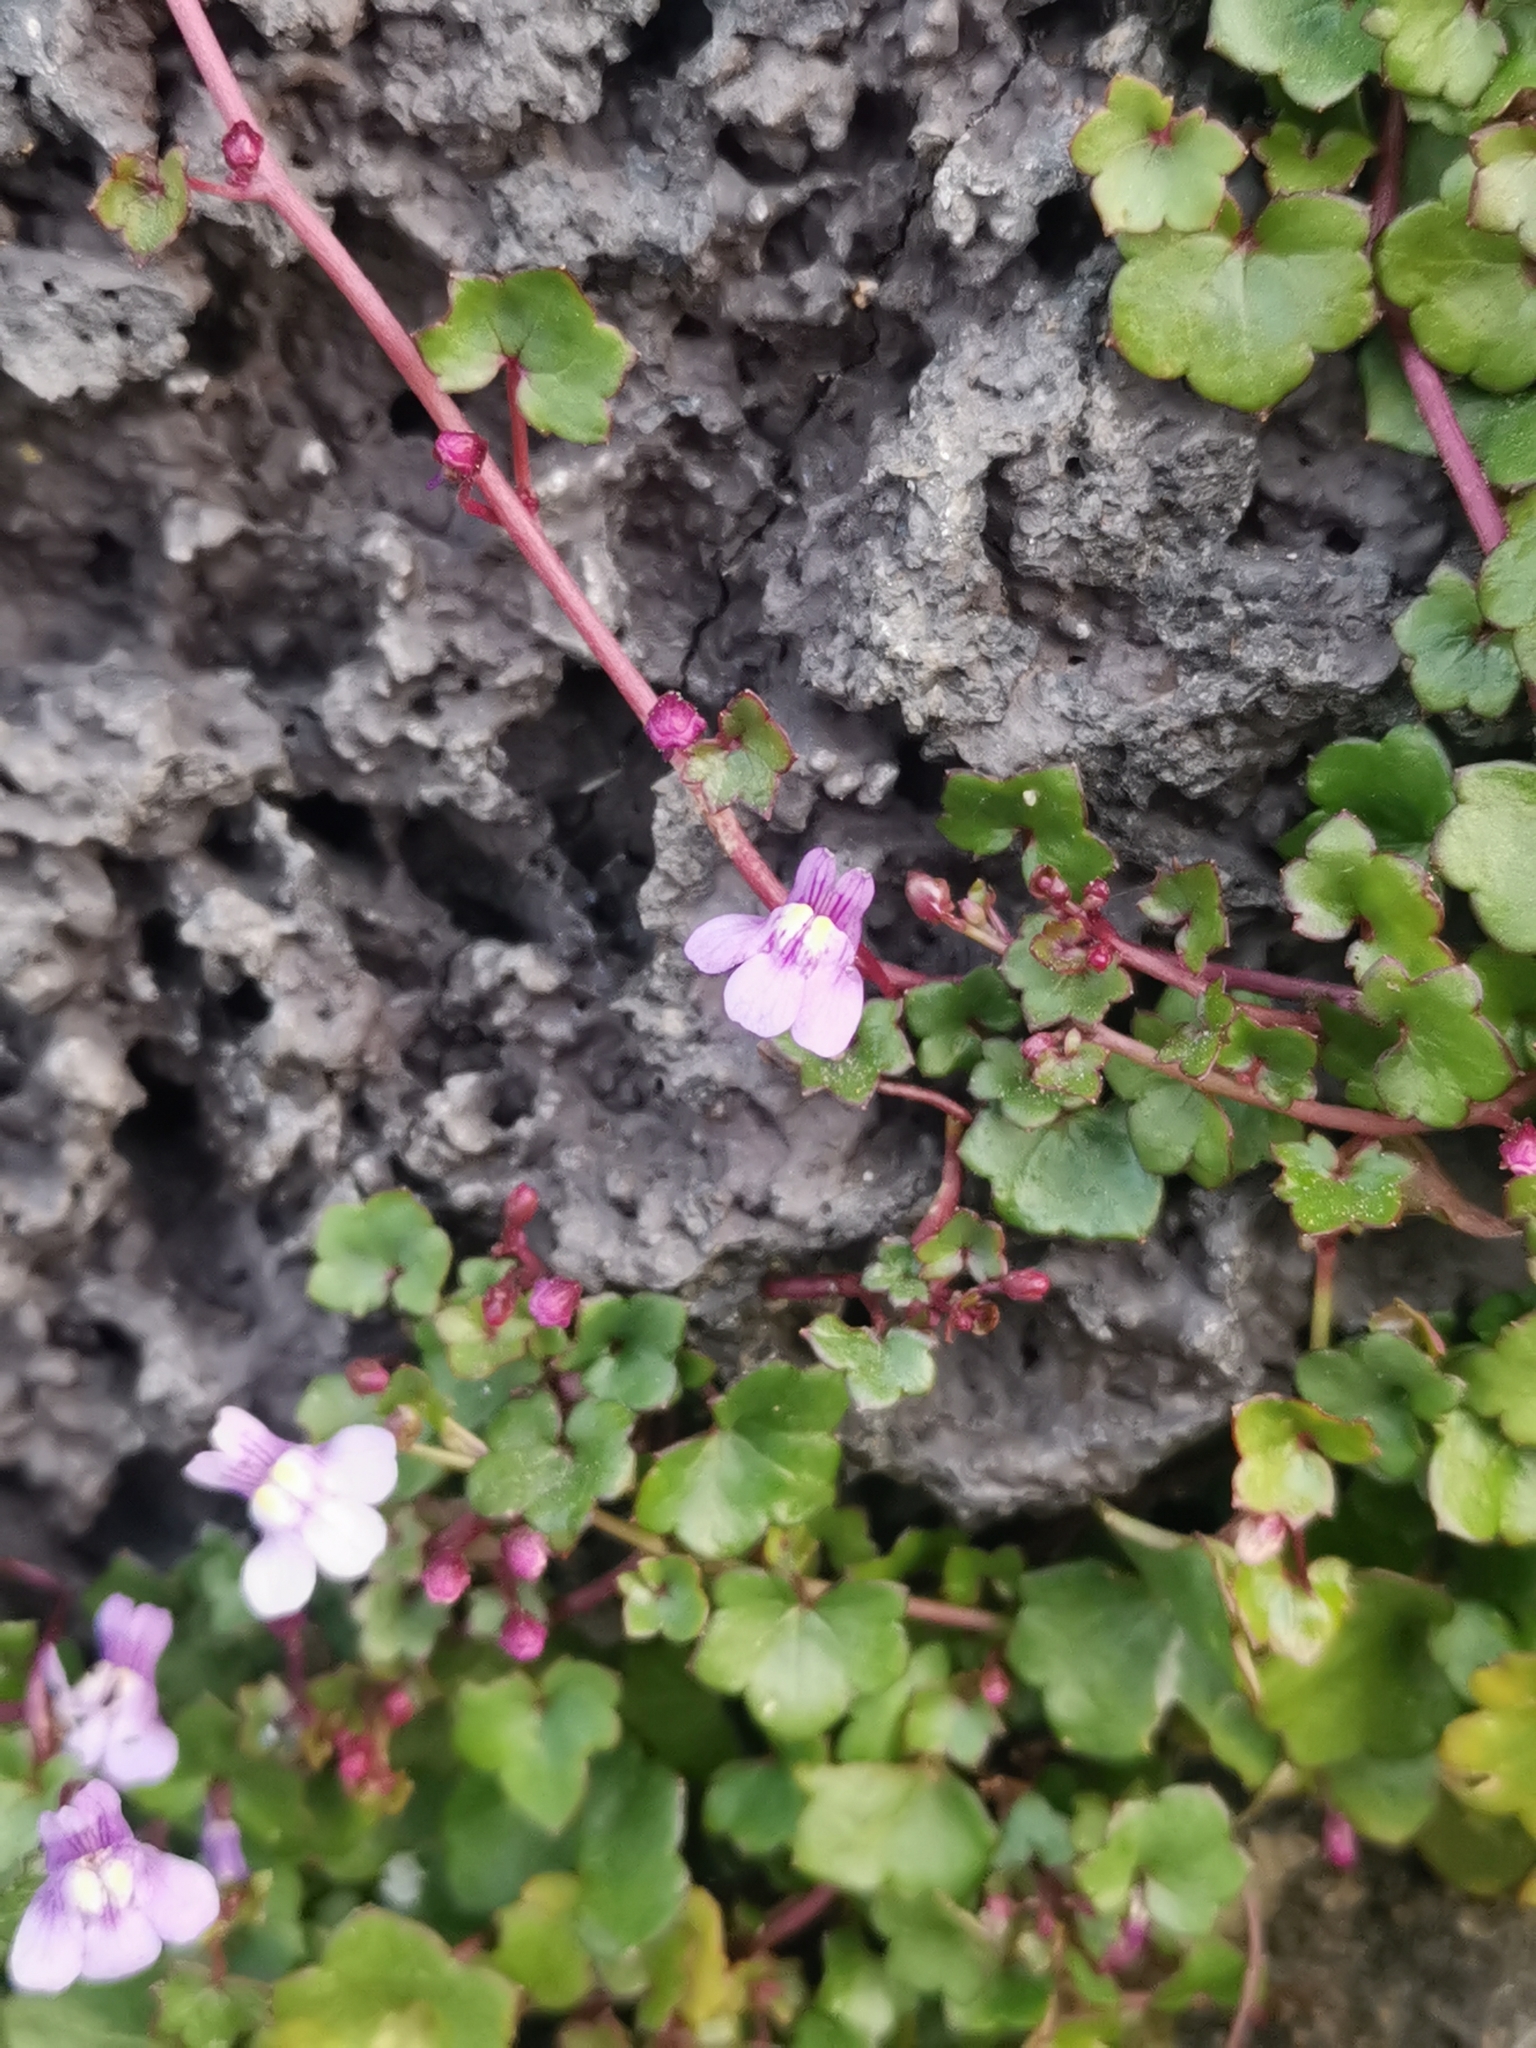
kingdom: Plantae
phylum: Tracheophyta
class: Magnoliopsida
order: Lamiales
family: Plantaginaceae
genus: Cymbalaria
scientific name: Cymbalaria muralis
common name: Ivy-leaved toadflax
